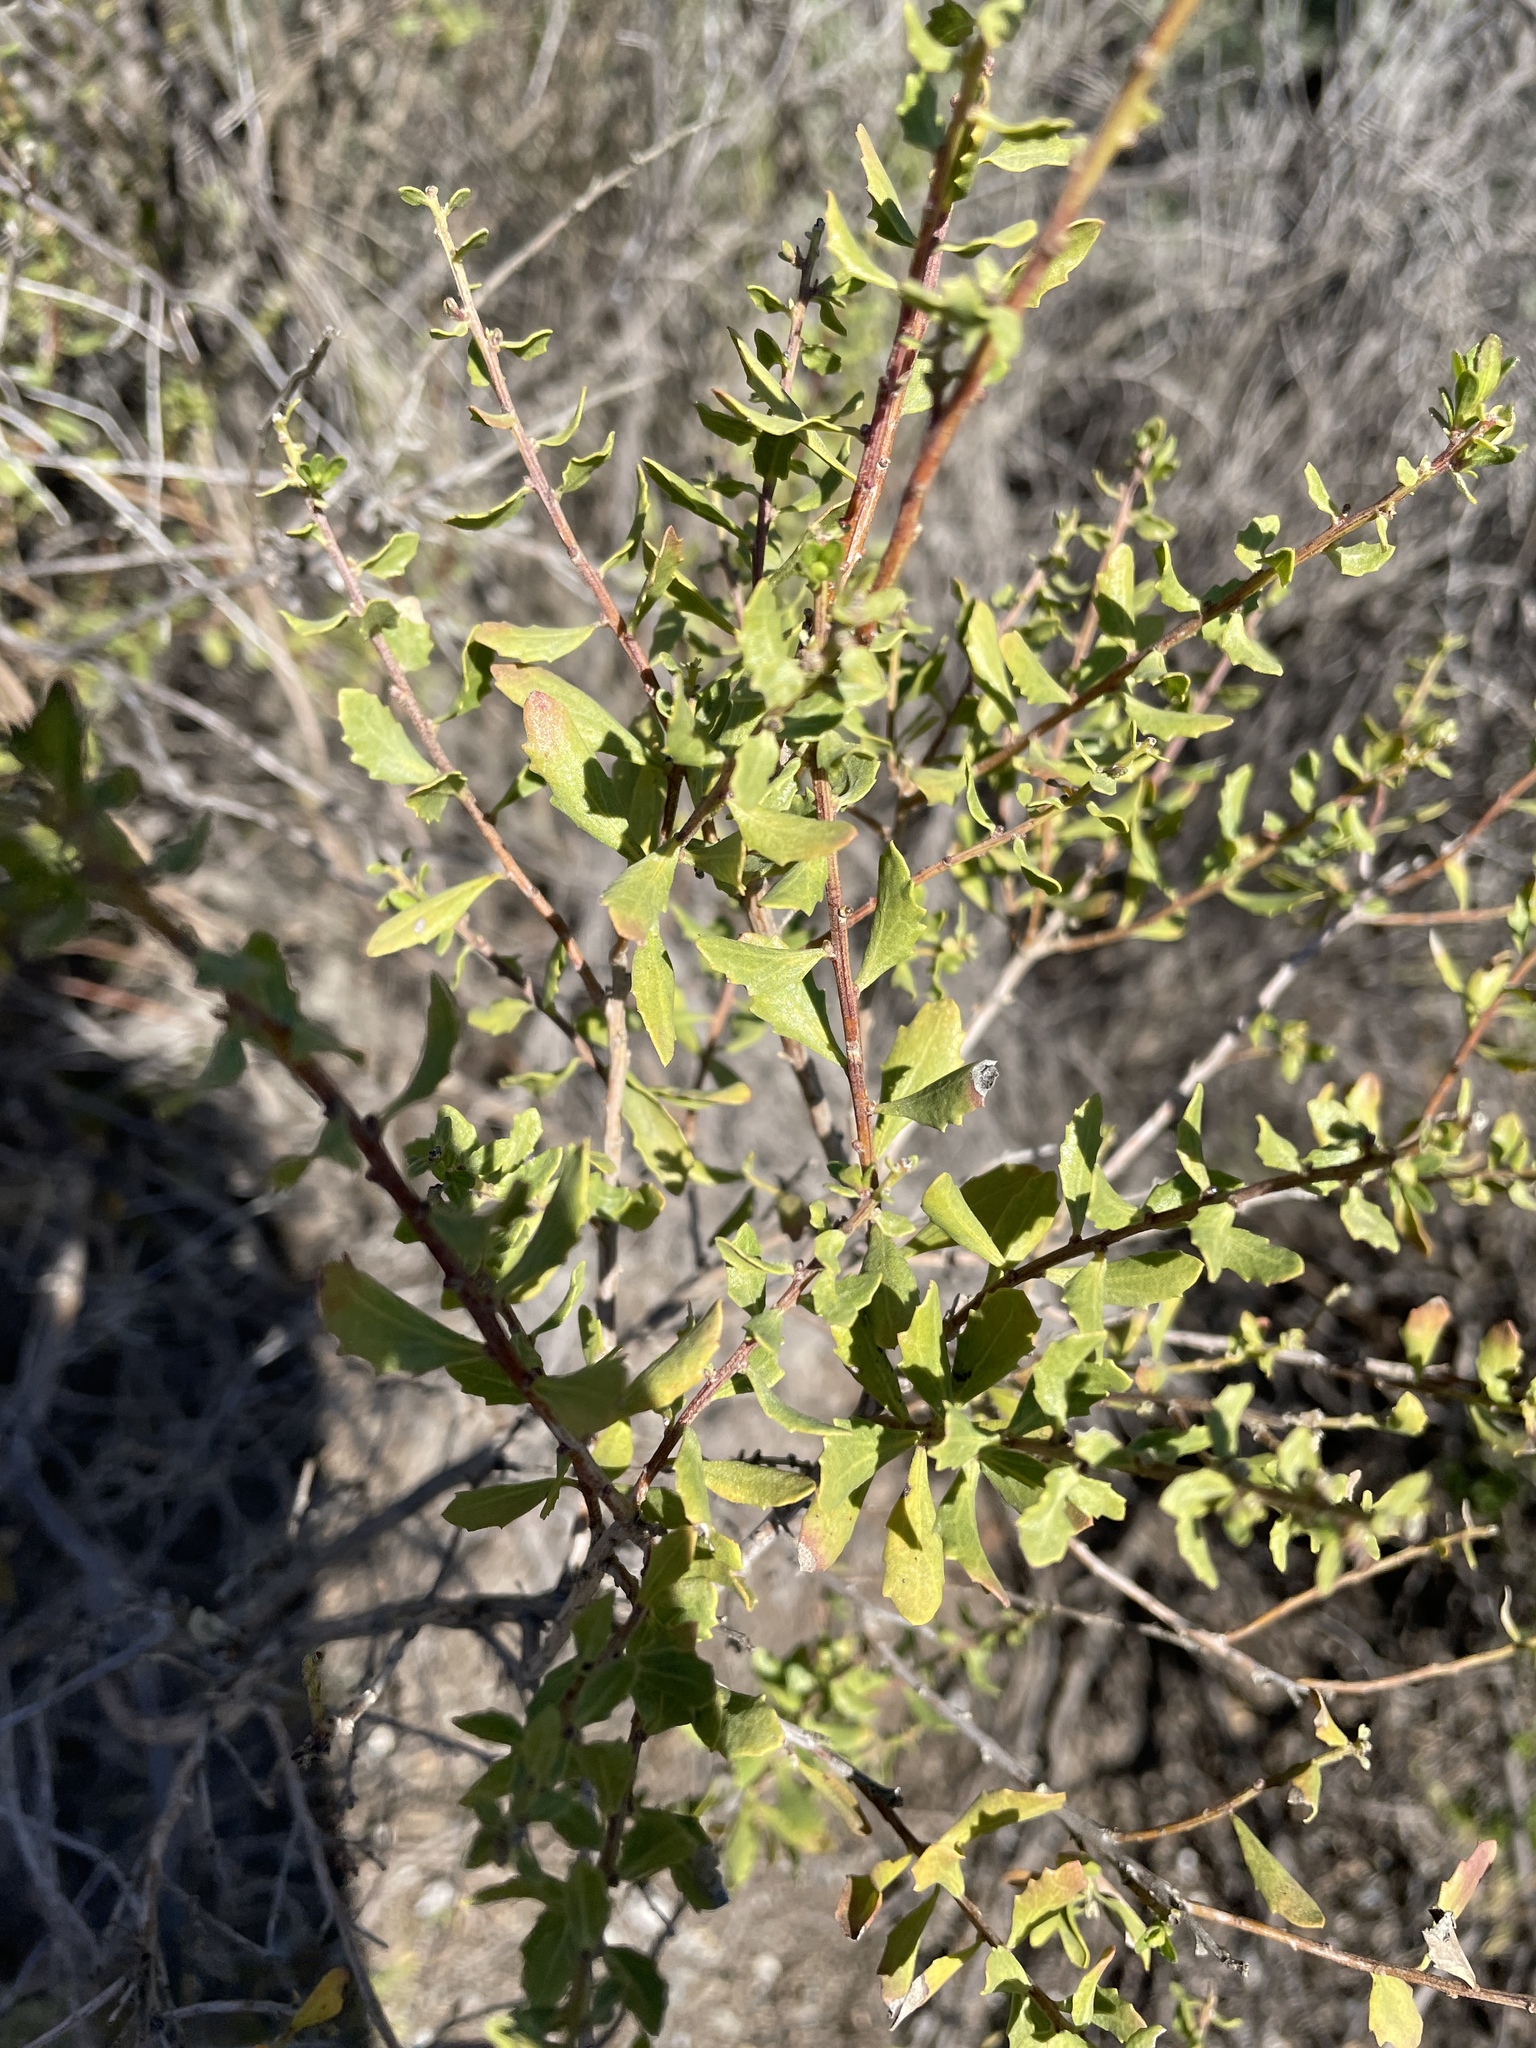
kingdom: Plantae
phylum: Tracheophyta
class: Magnoliopsida
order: Asterales
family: Asteraceae
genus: Baccharis
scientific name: Baccharis pilularis
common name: Coyotebrush
